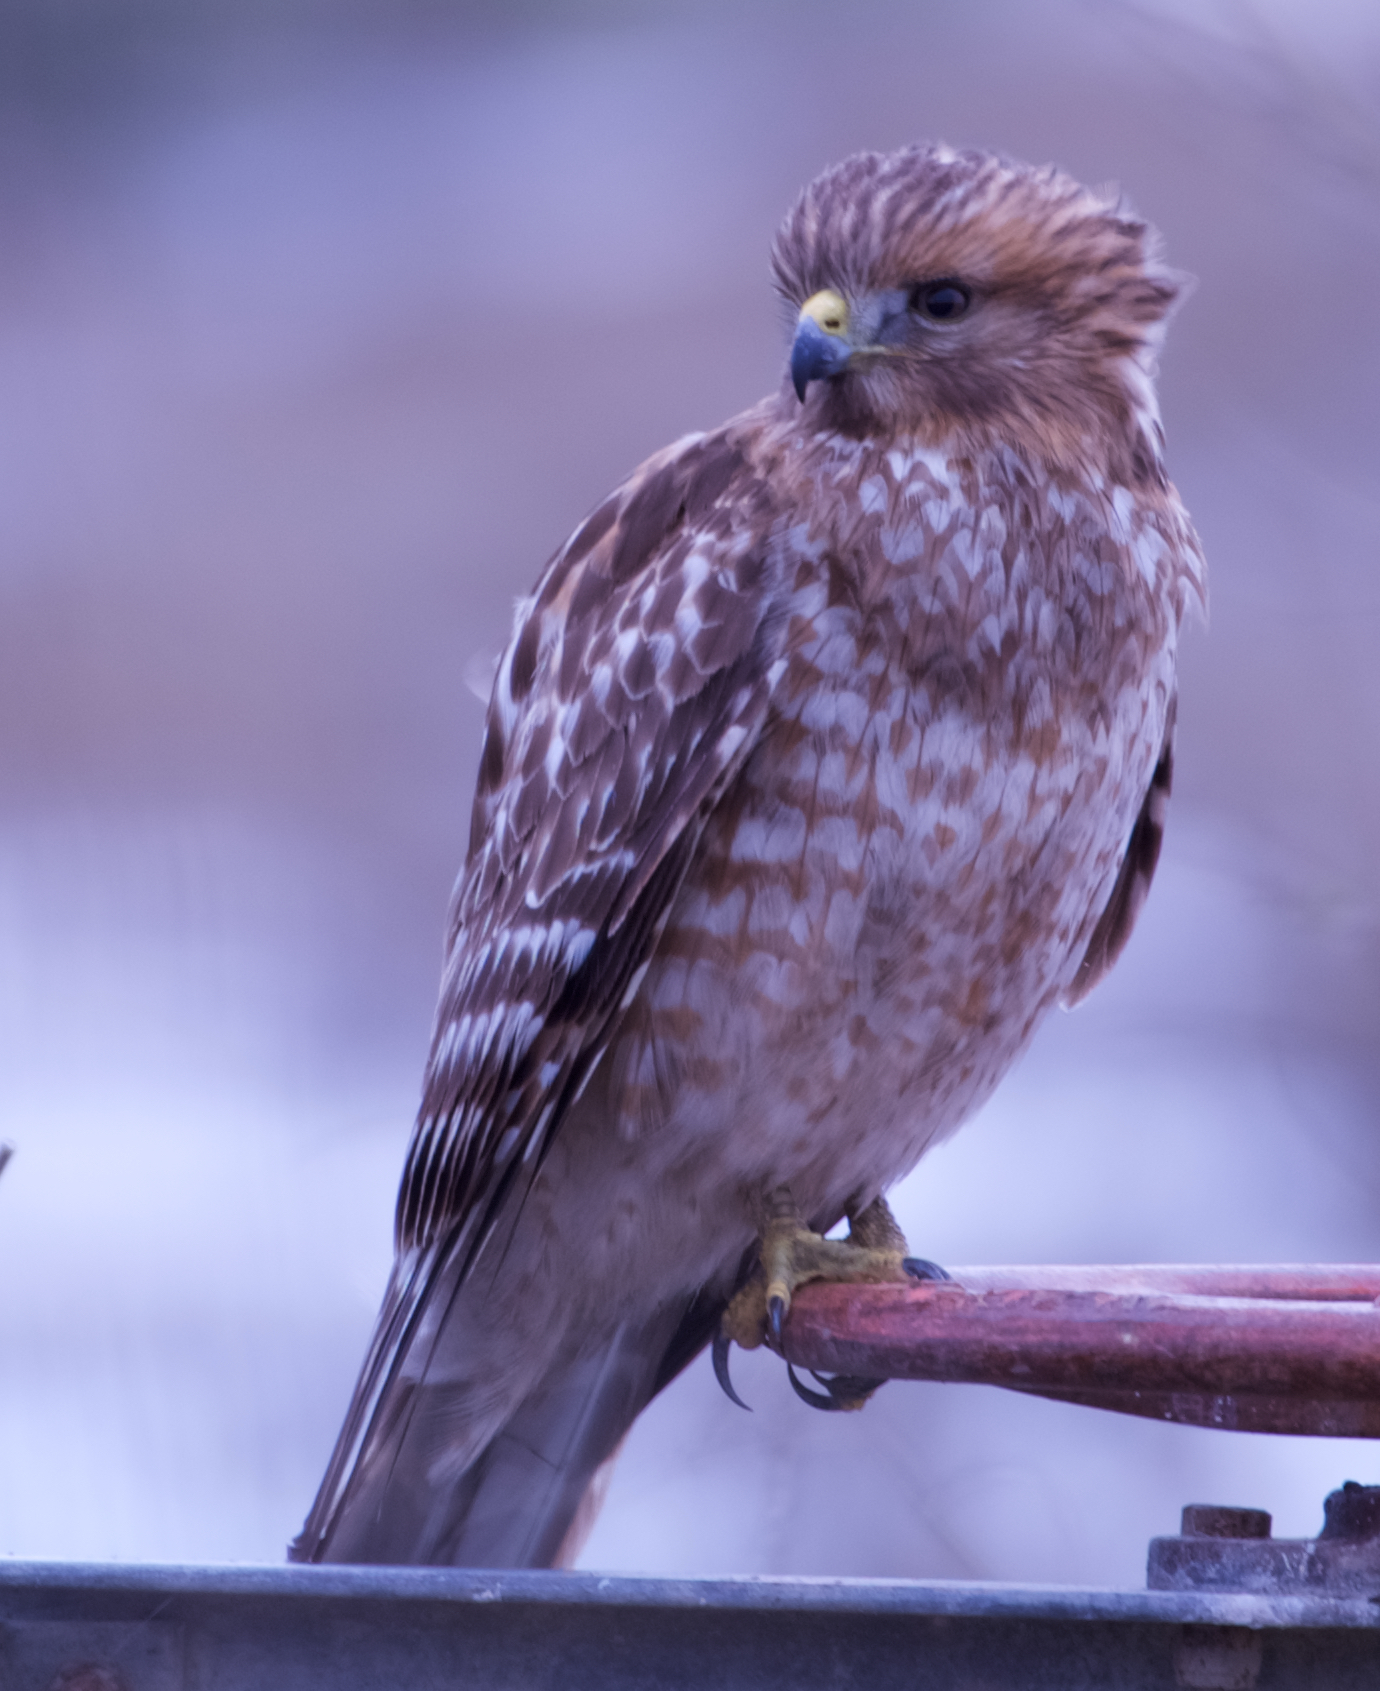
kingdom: Animalia
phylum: Chordata
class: Aves
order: Accipitriformes
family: Accipitridae
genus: Buteo
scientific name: Buteo lineatus
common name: Red-shouldered hawk
